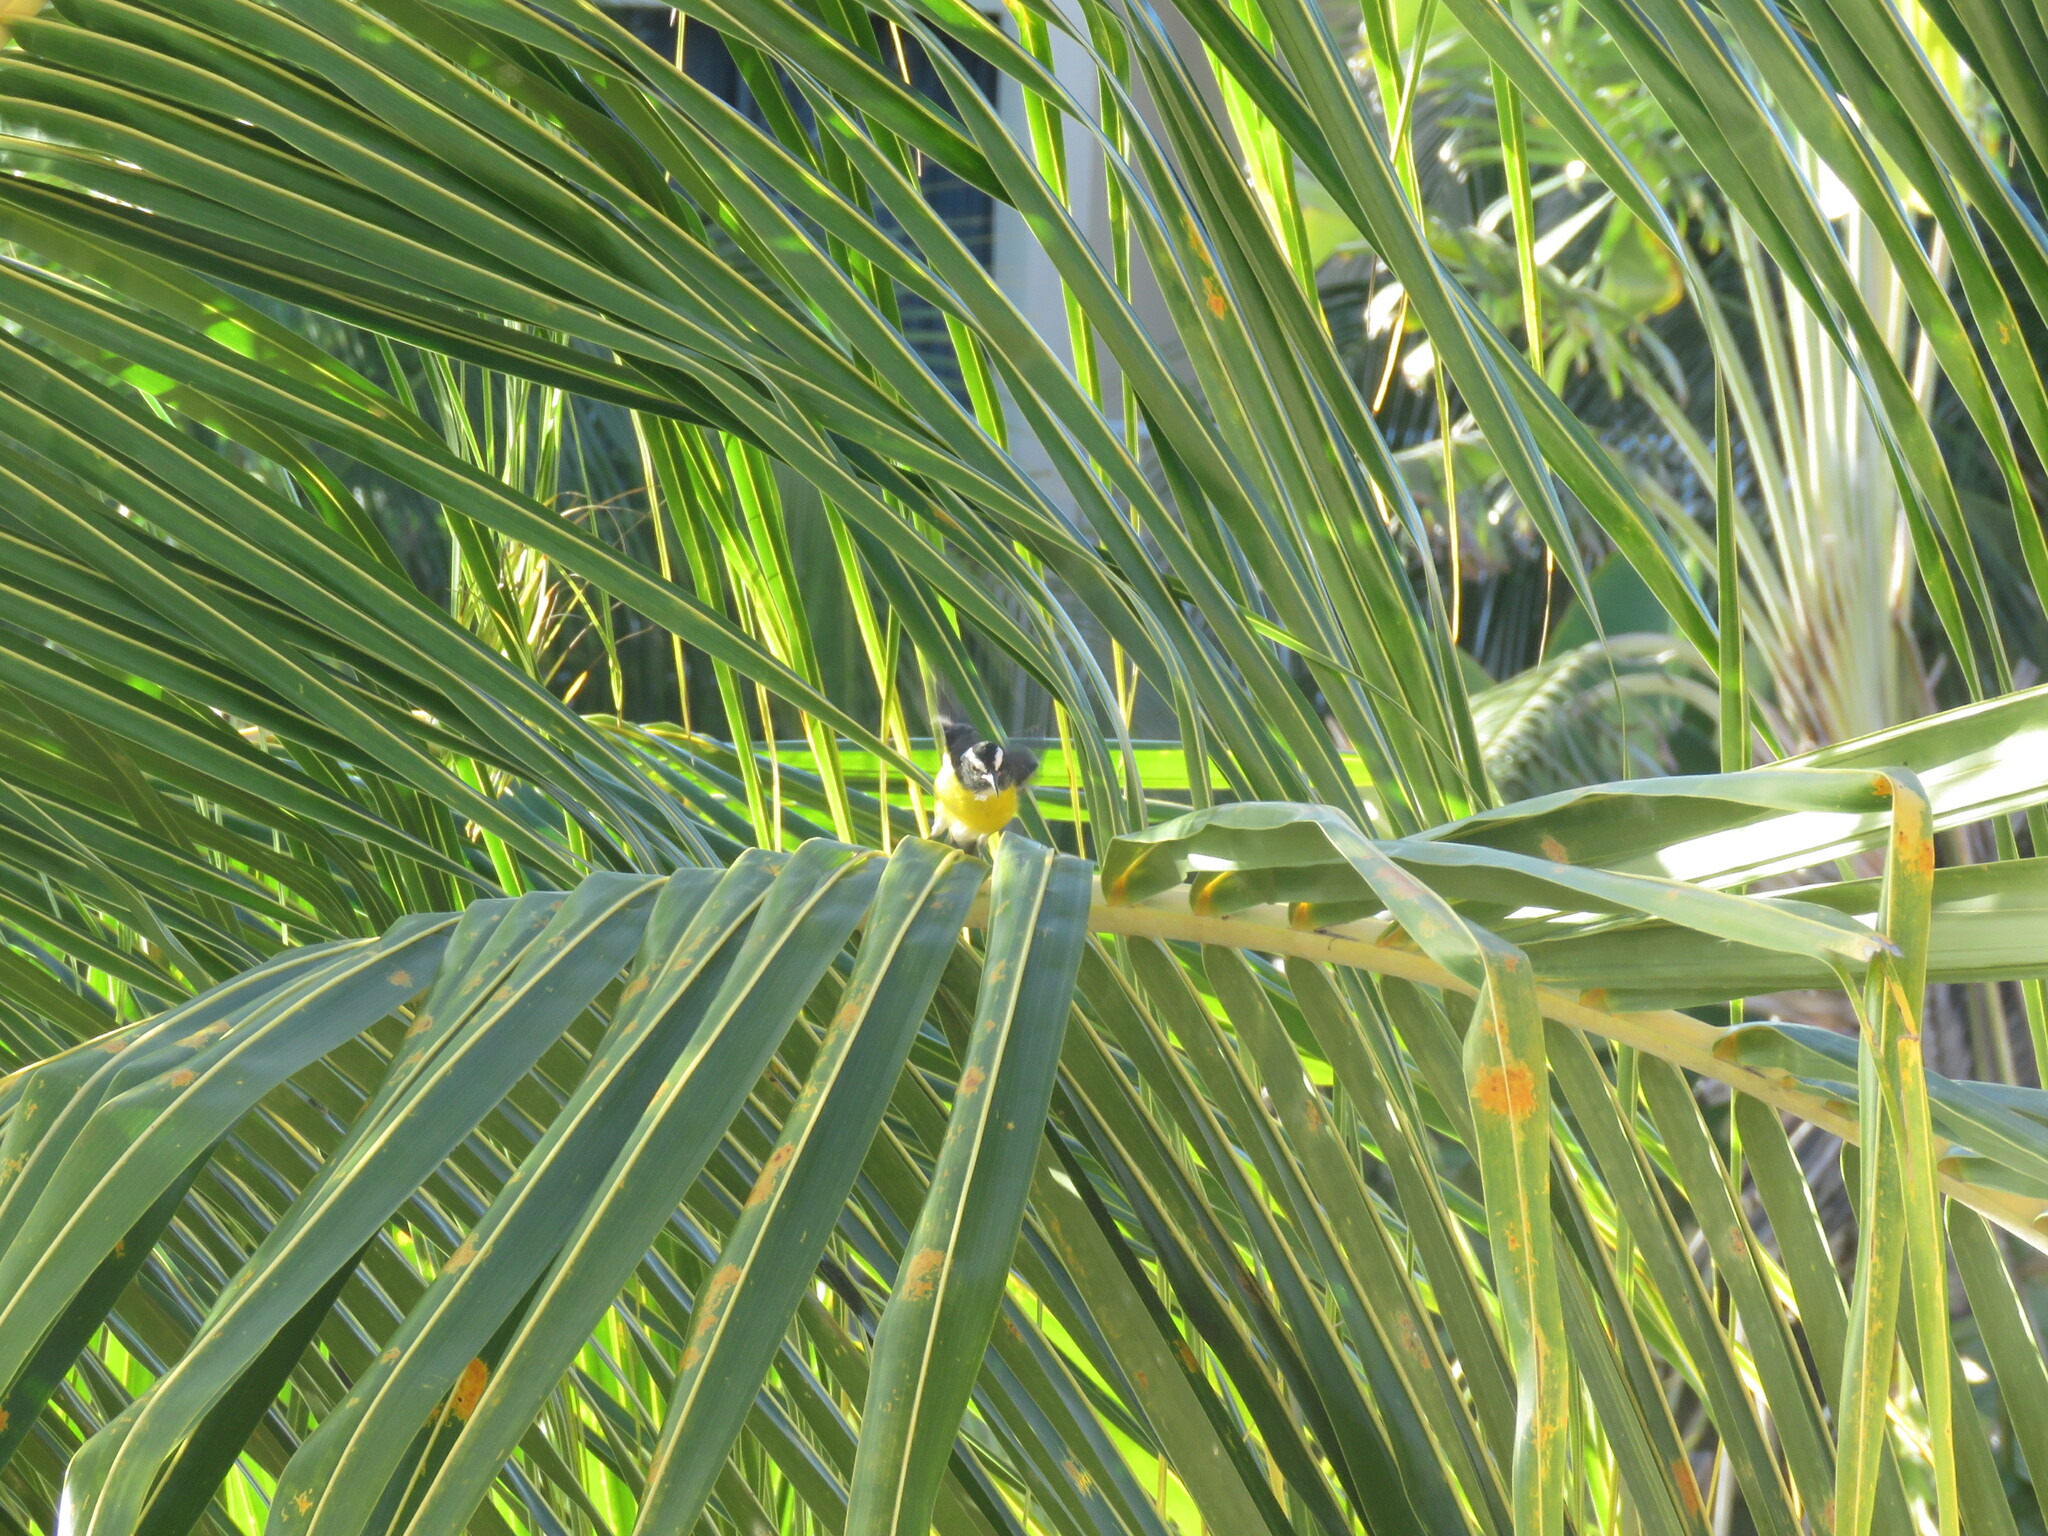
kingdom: Animalia
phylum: Chordata
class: Aves
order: Passeriformes
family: Thraupidae
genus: Coereba
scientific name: Coereba flaveola
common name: Bananaquit
